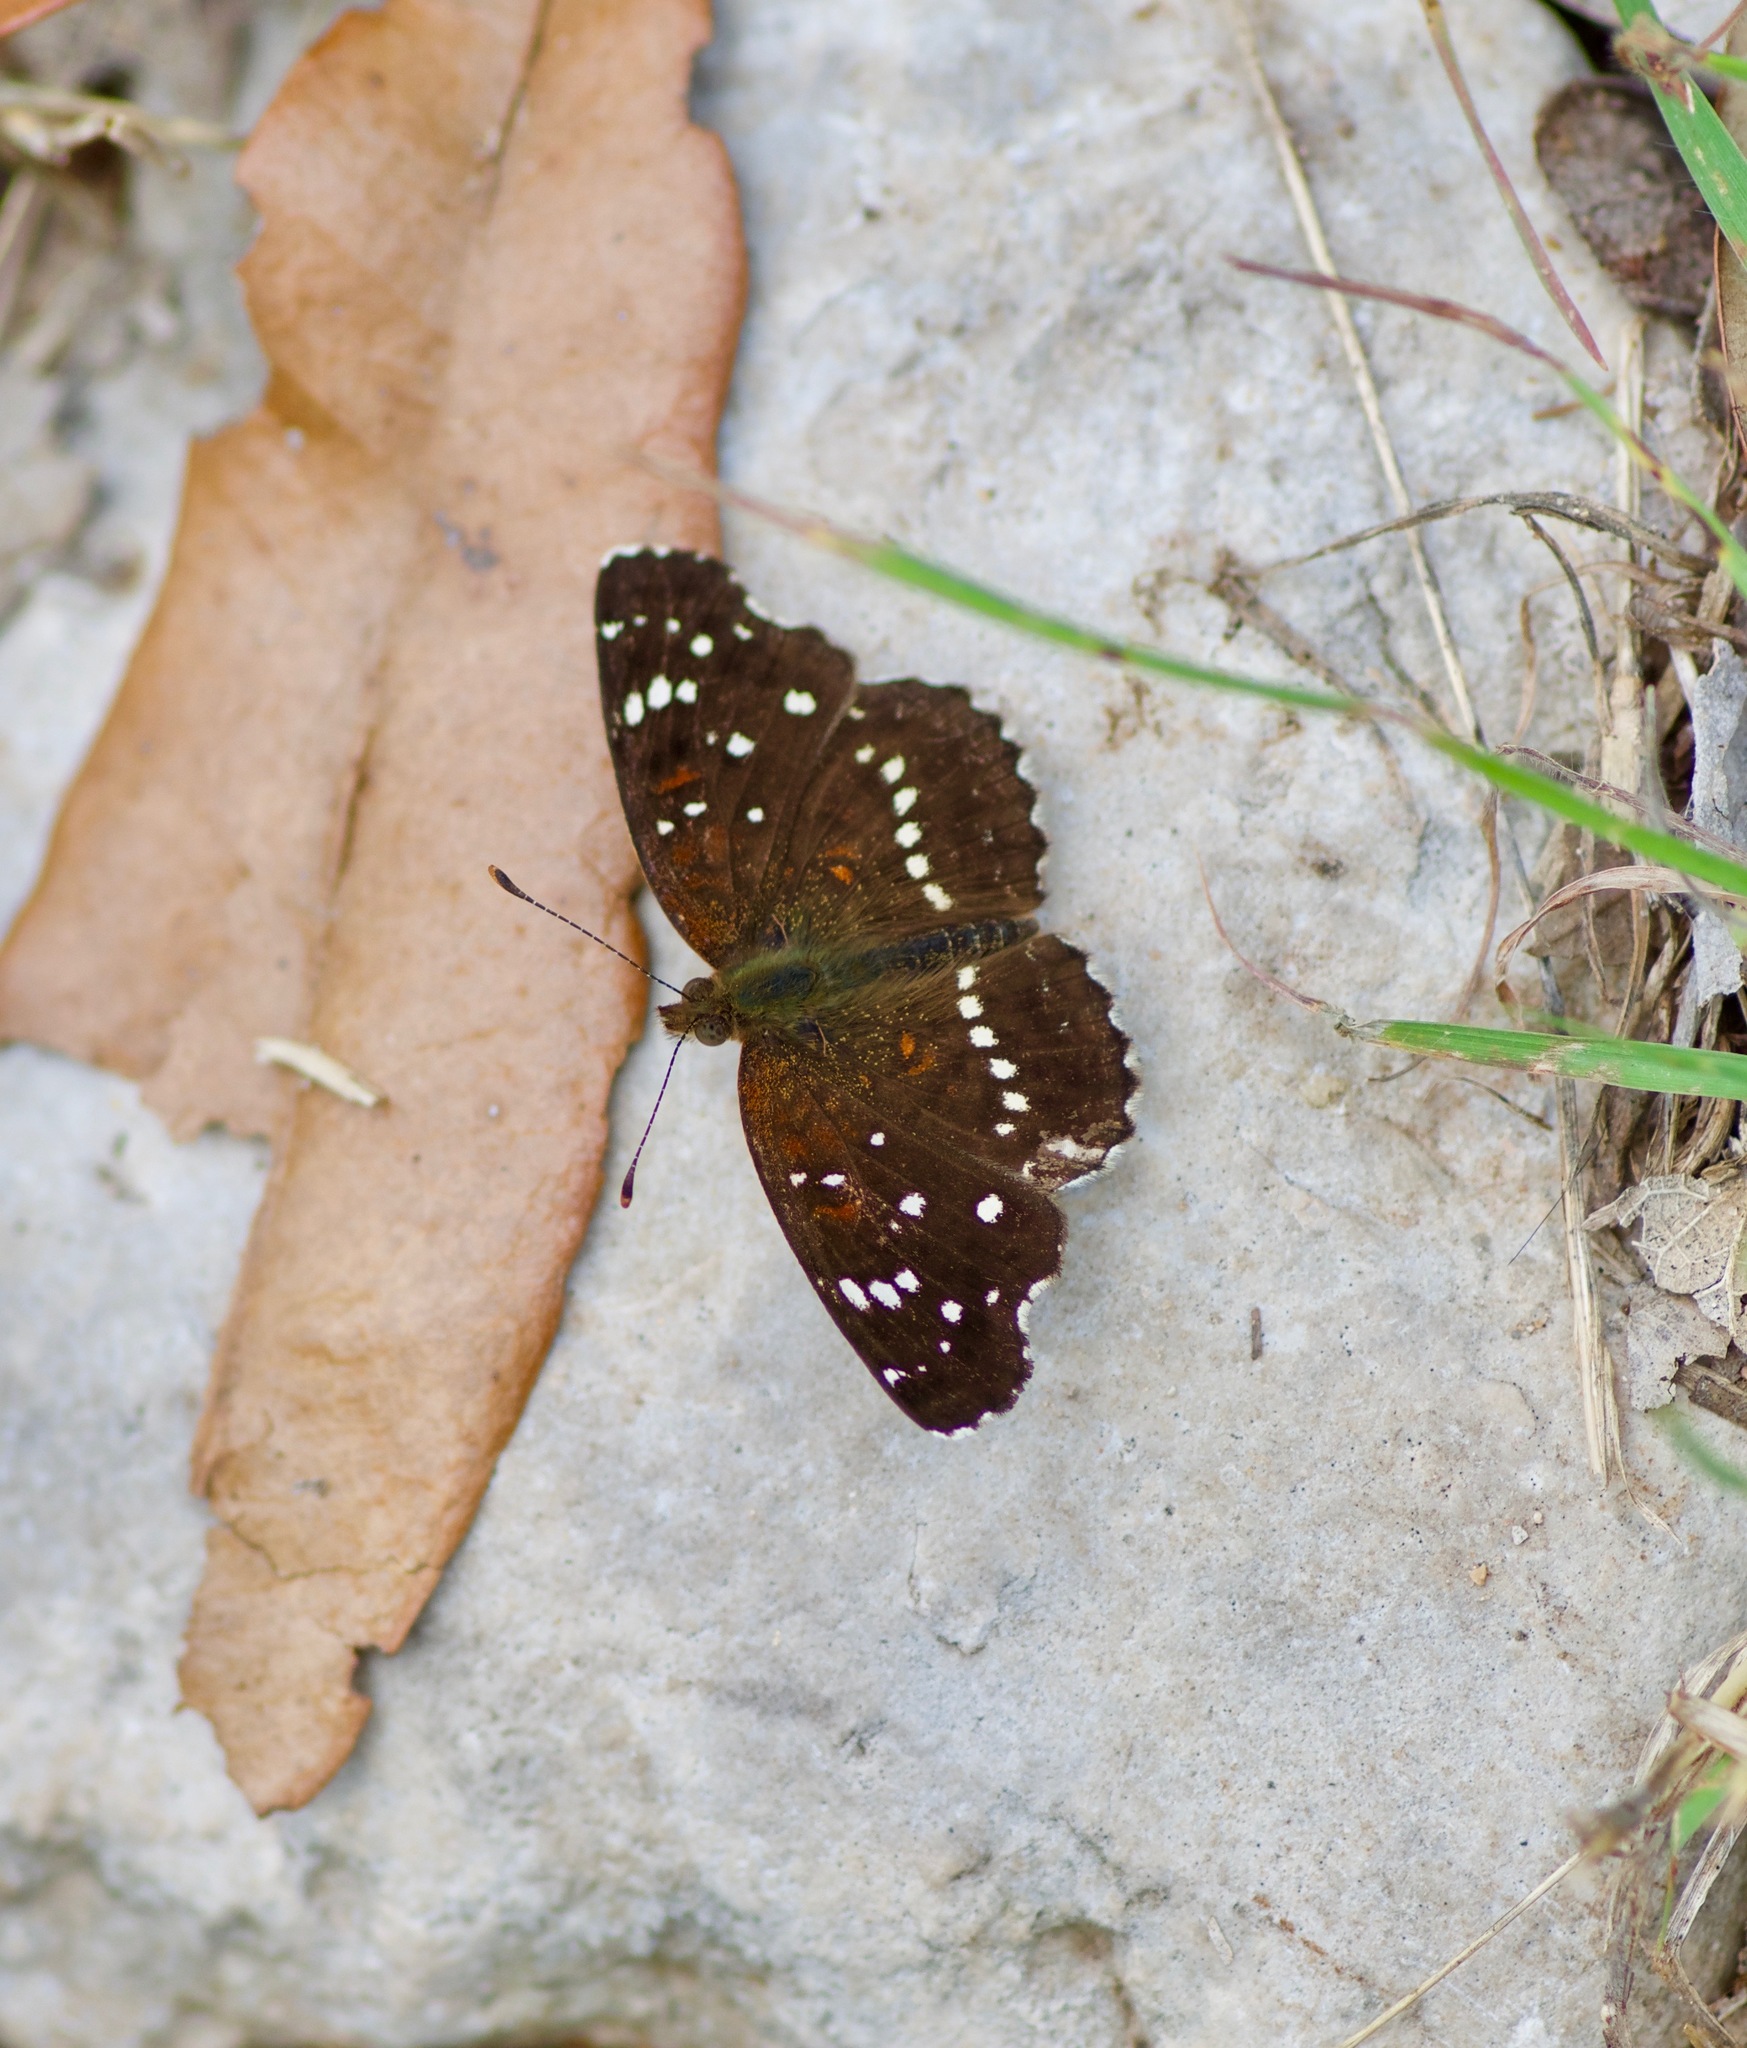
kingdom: Animalia
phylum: Arthropoda
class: Insecta
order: Lepidoptera
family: Nymphalidae
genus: Anthanassa
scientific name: Anthanassa texana
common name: Texan crescent
